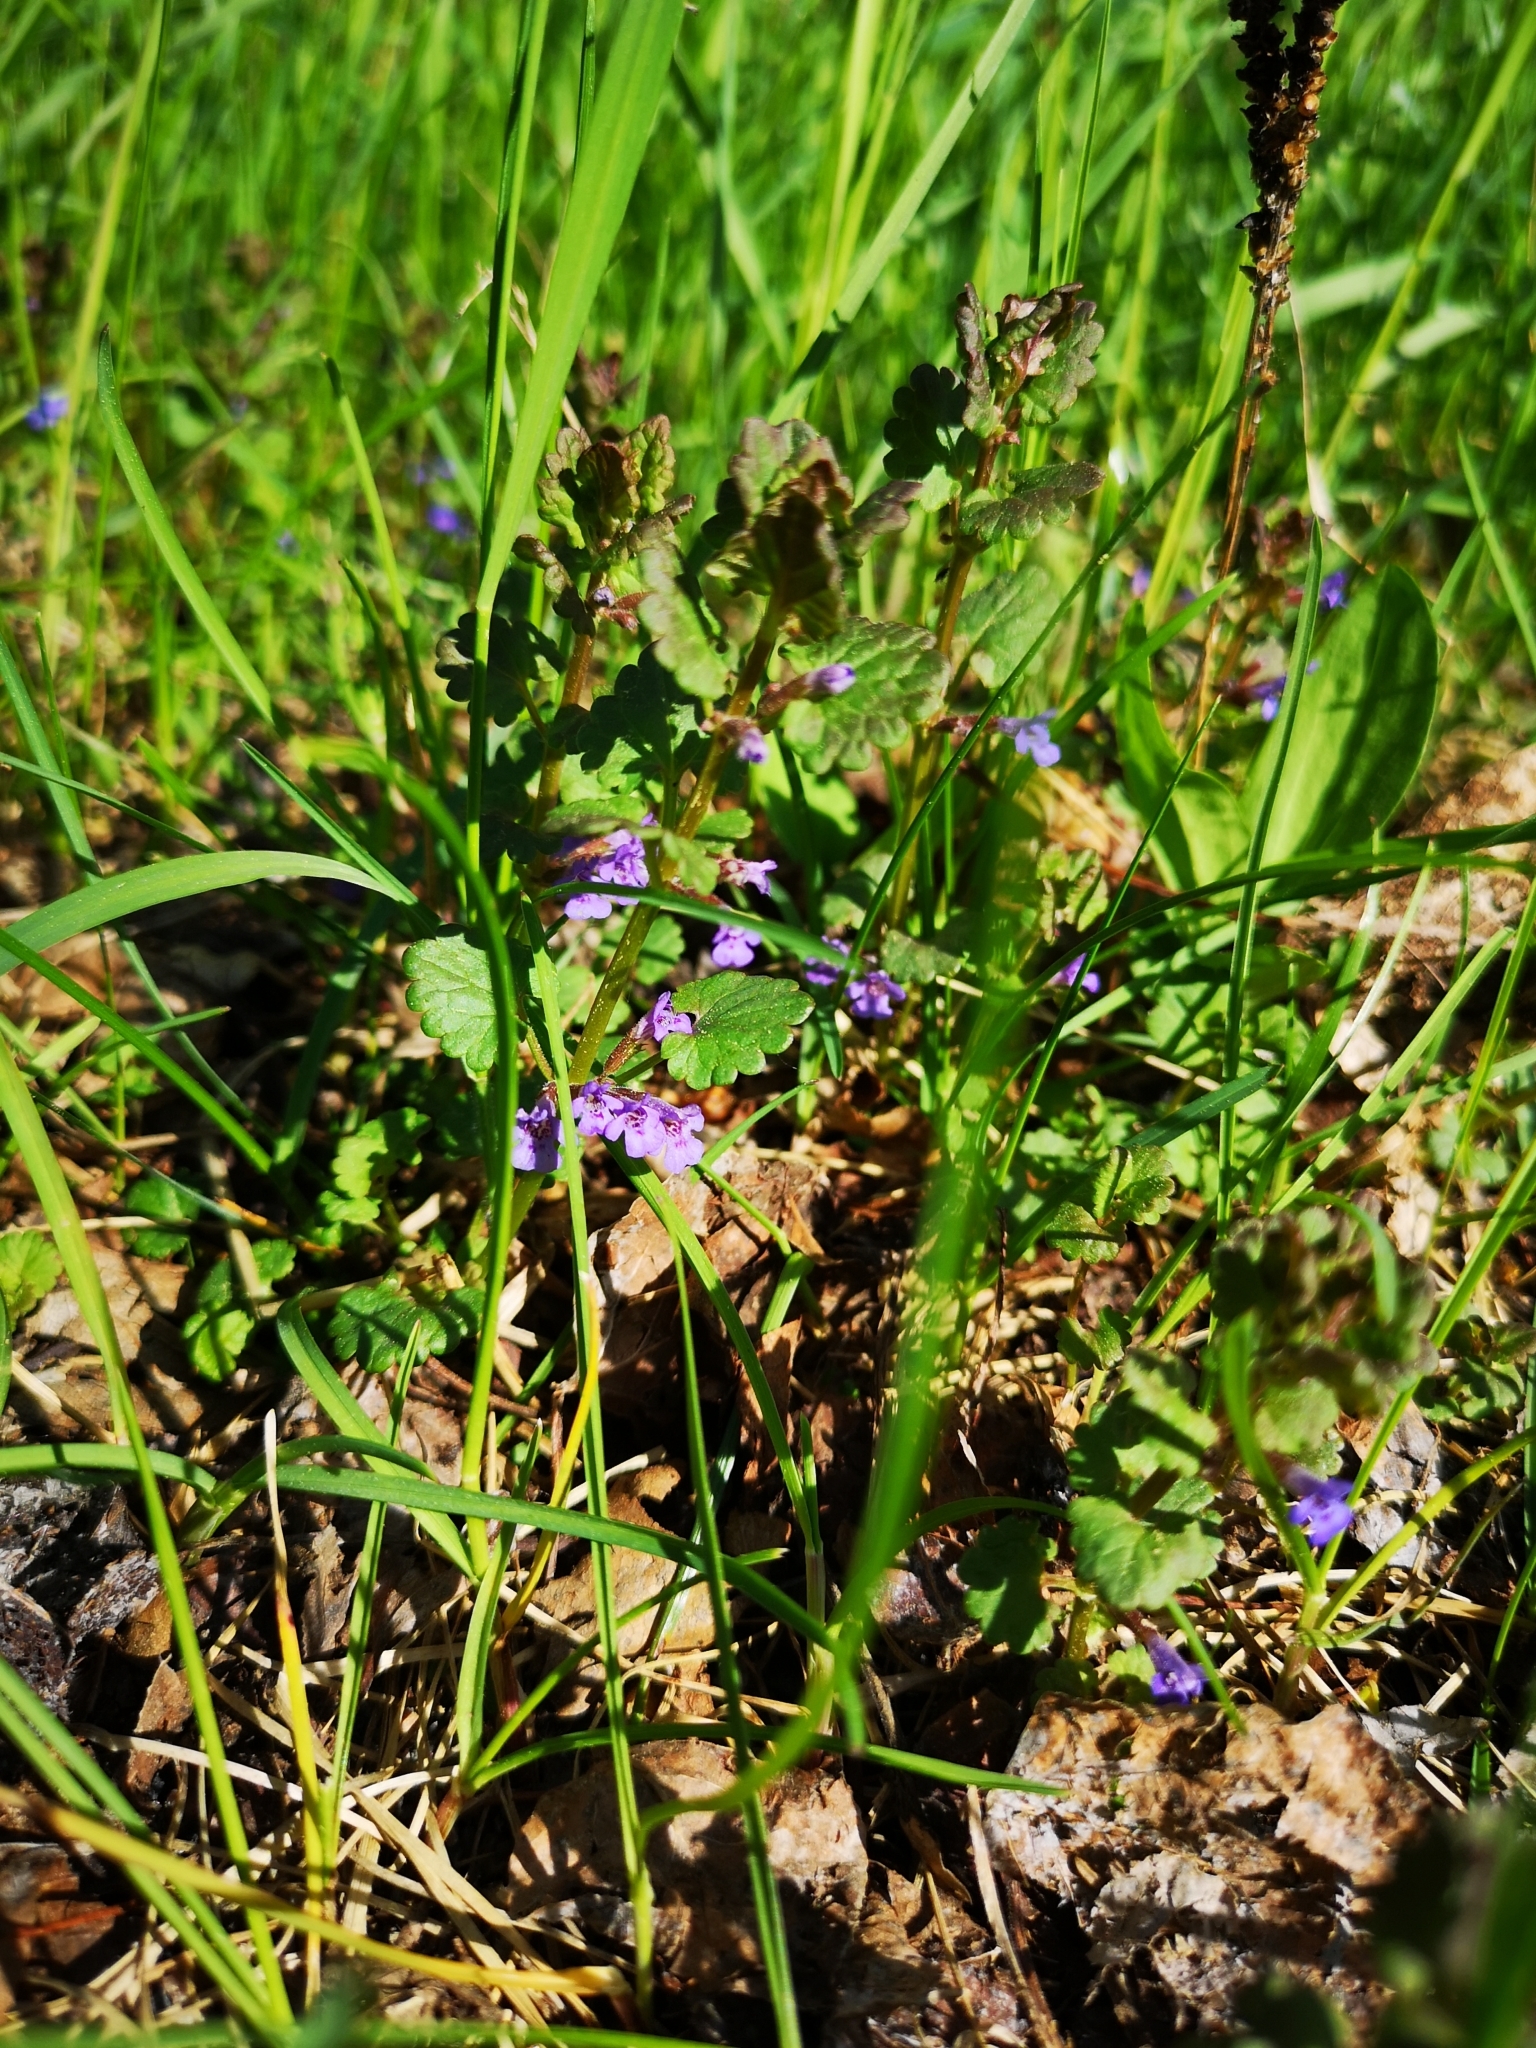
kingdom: Plantae
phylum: Tracheophyta
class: Magnoliopsida
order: Lamiales
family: Lamiaceae
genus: Glechoma
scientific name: Glechoma hederacea
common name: Ground ivy
